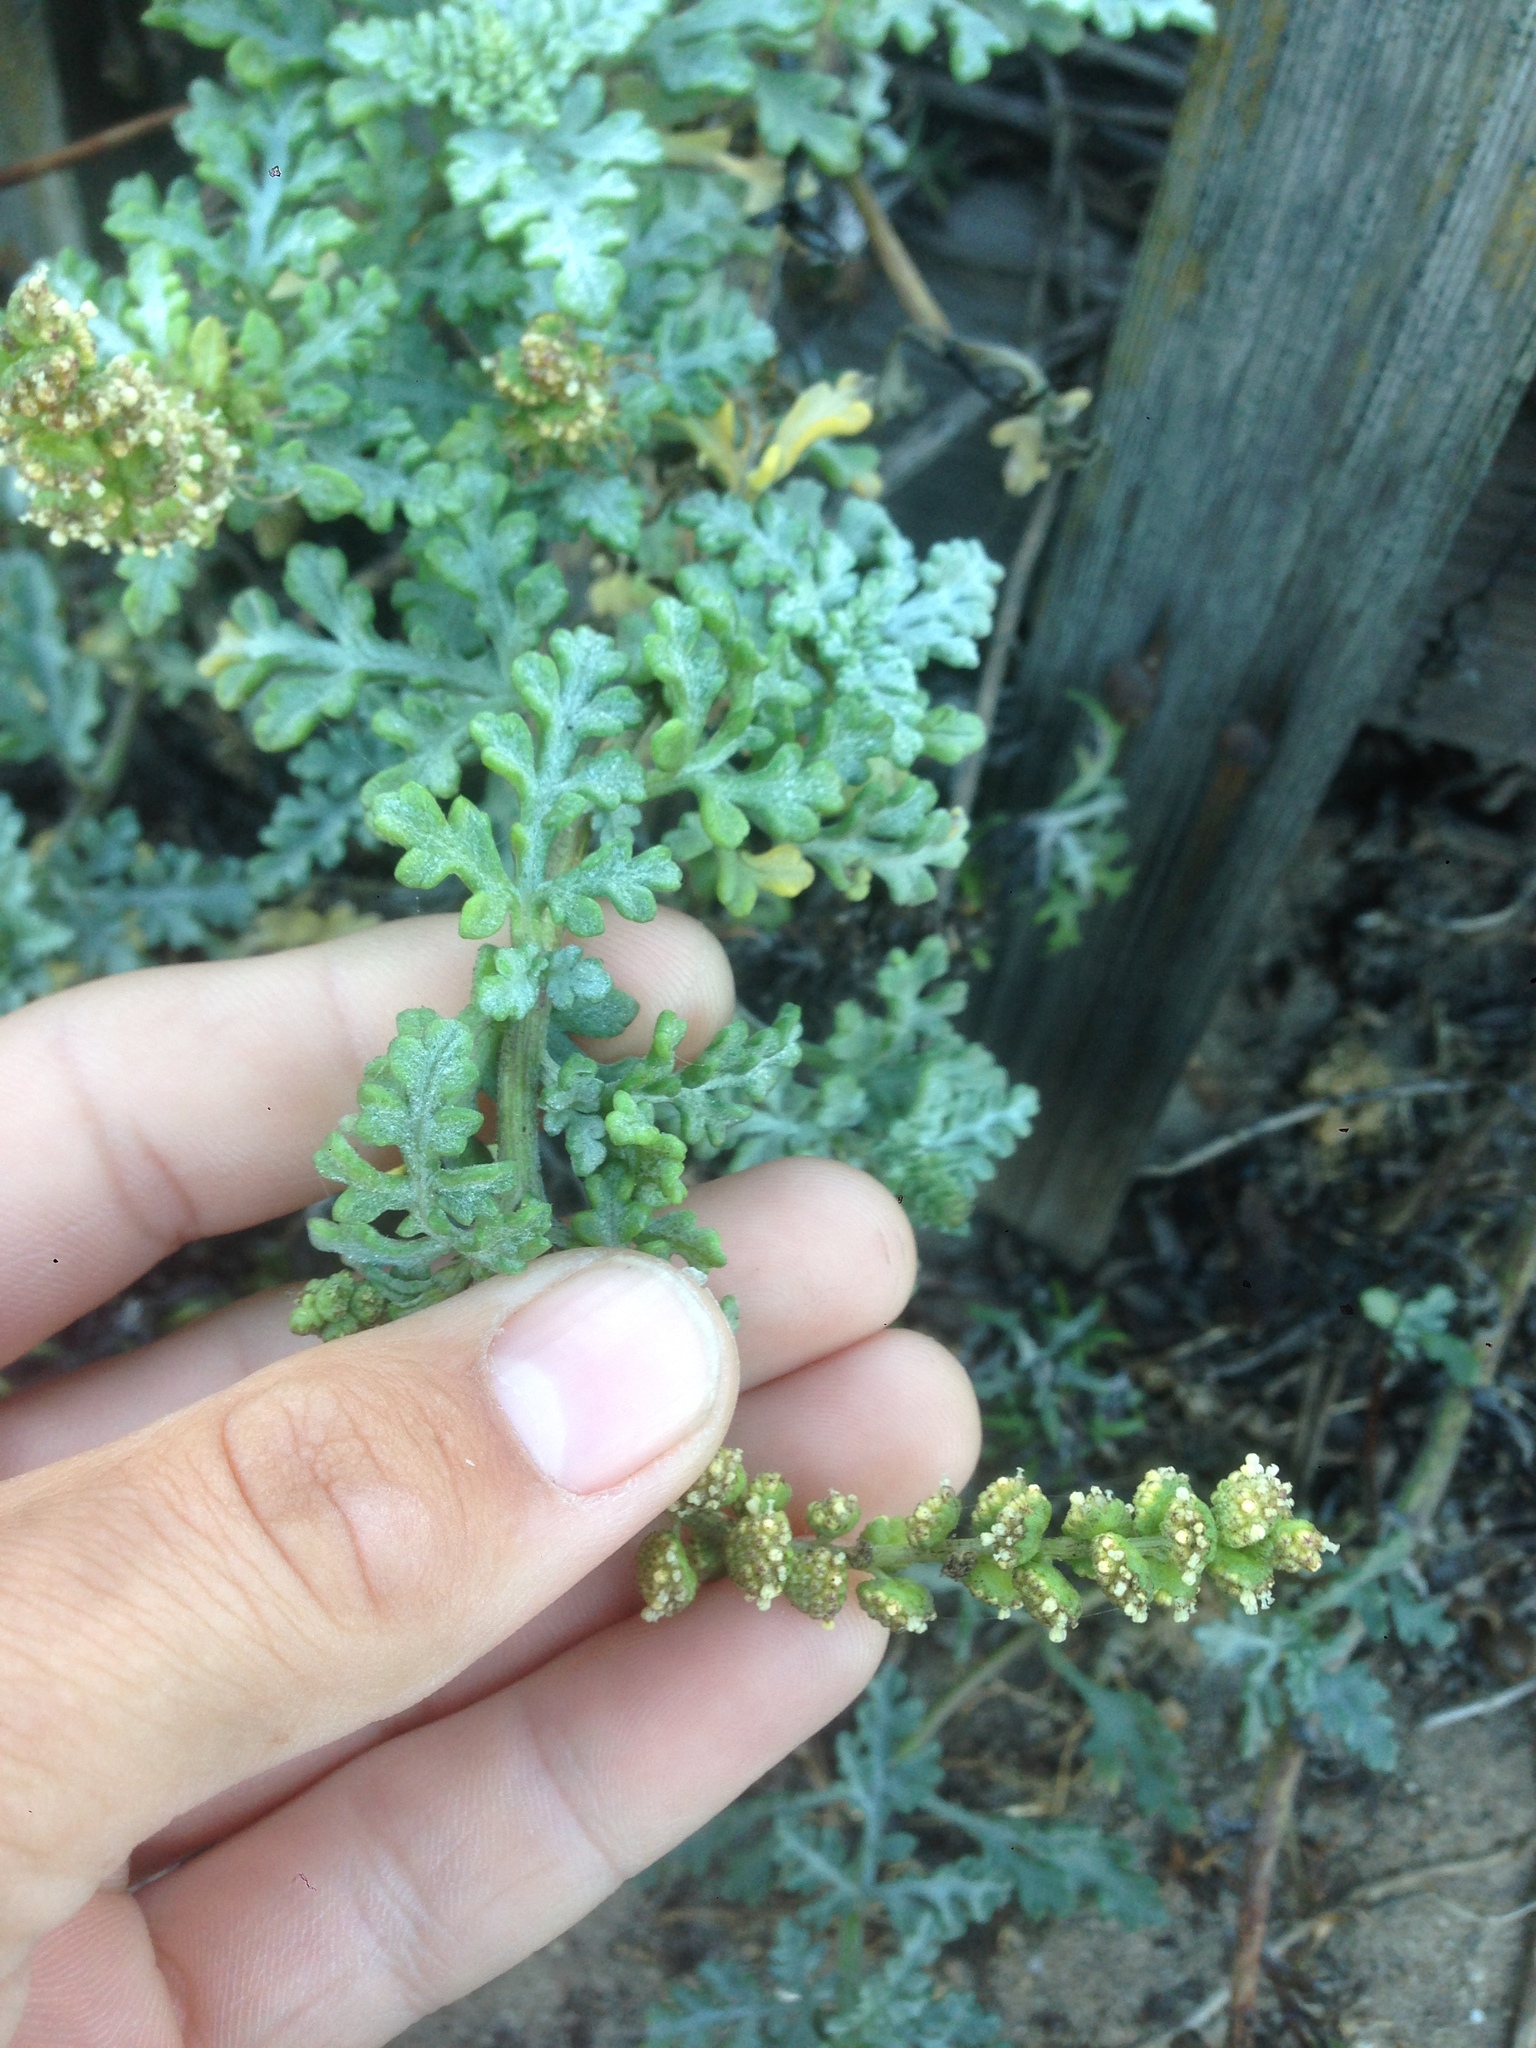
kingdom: Plantae
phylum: Tracheophyta
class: Magnoliopsida
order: Asterales
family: Asteraceae
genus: Ambrosia
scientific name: Ambrosia chamissonis
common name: Beachbur
